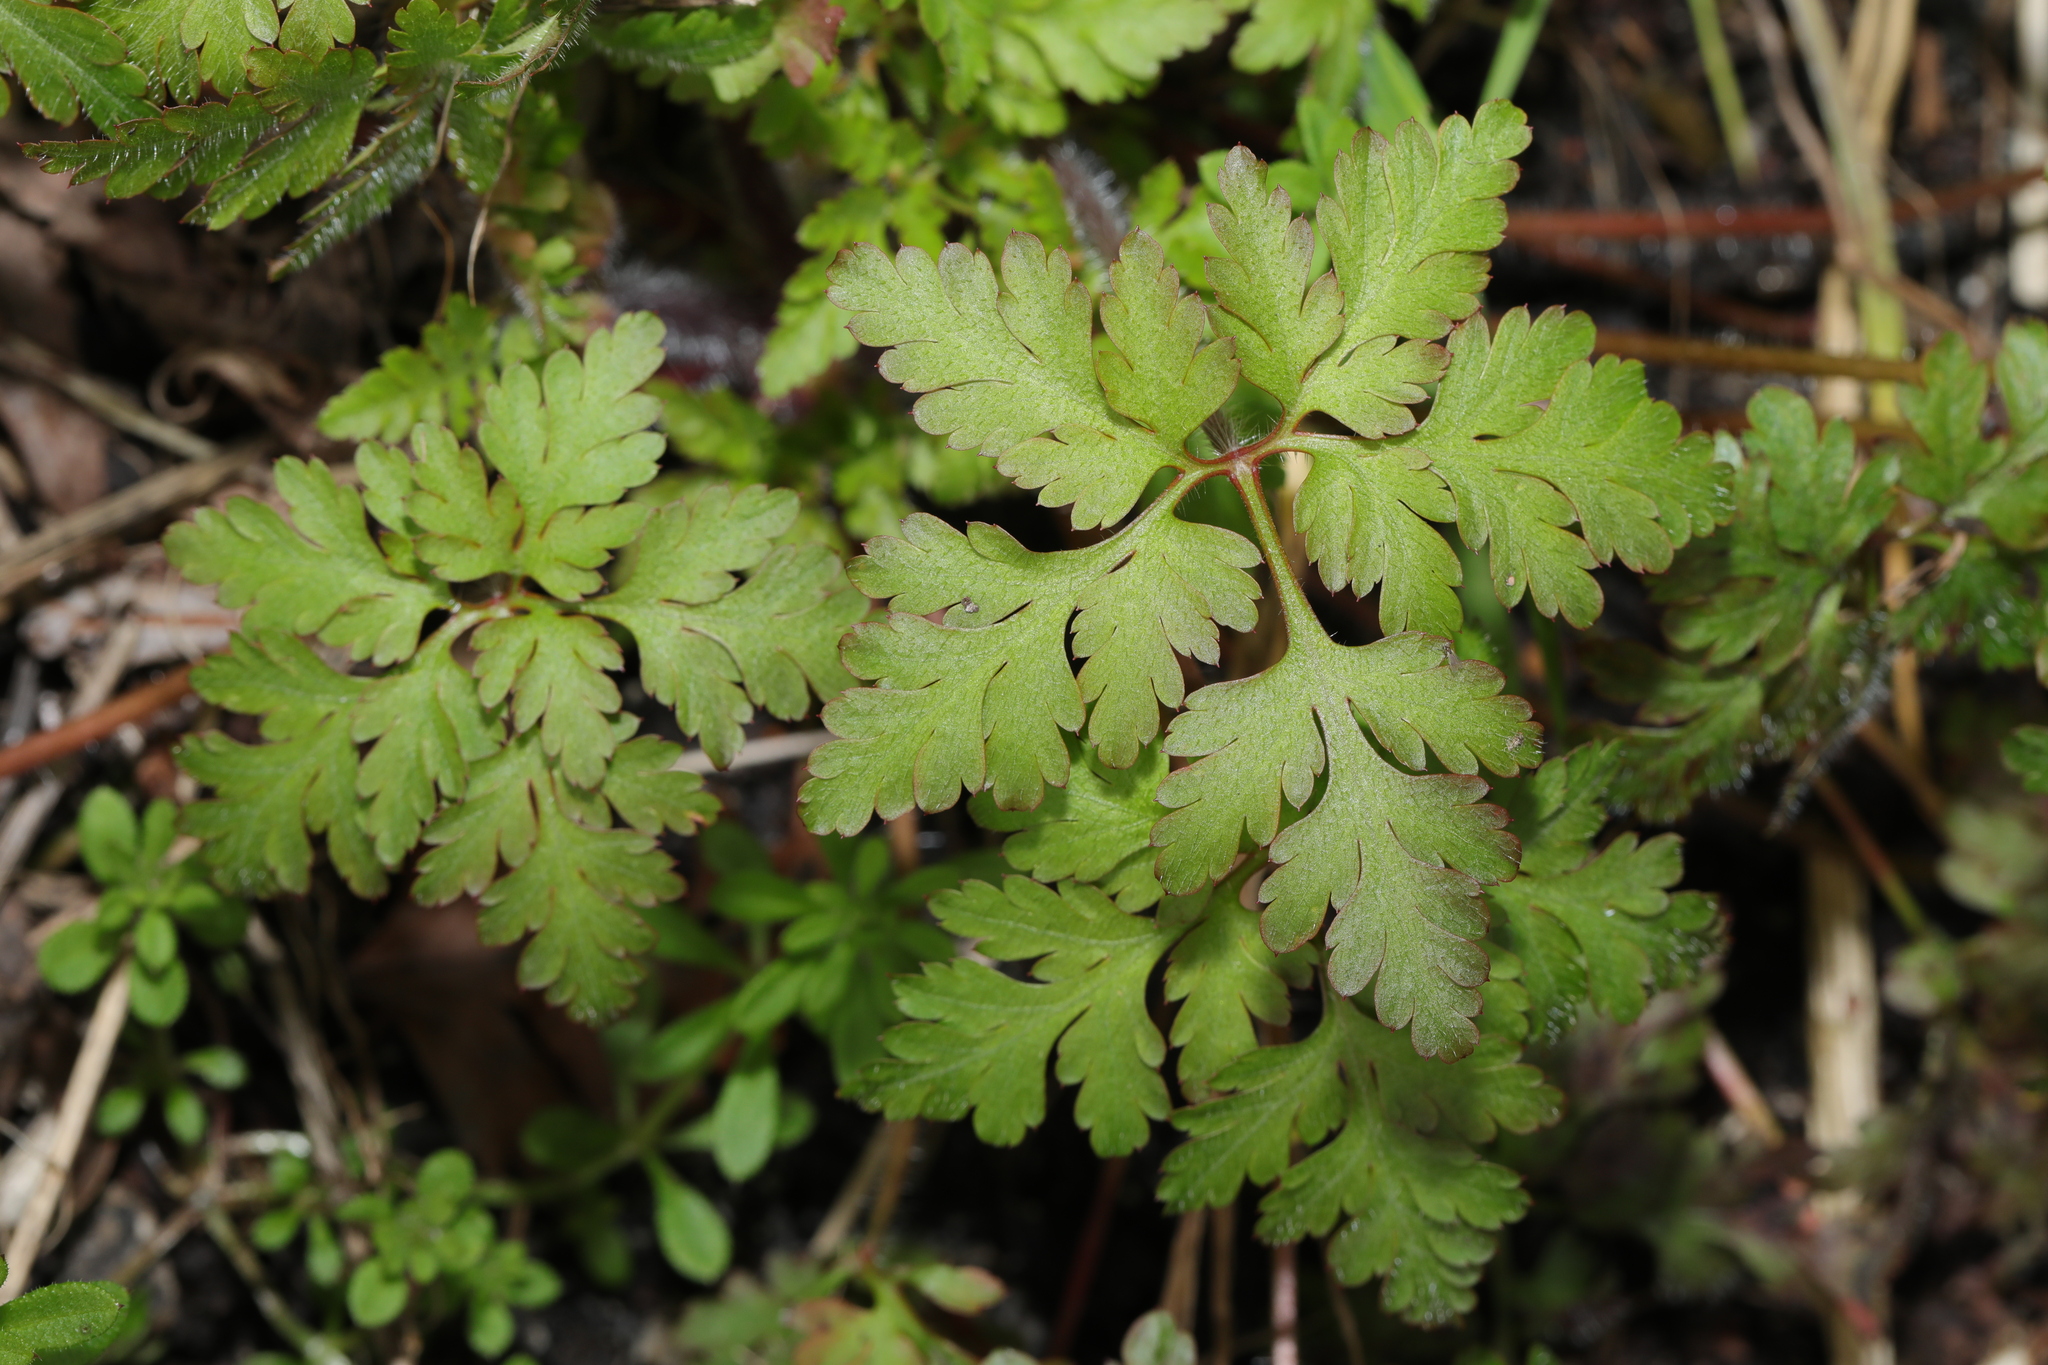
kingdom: Plantae
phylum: Tracheophyta
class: Magnoliopsida
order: Geraniales
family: Geraniaceae
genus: Geranium
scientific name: Geranium robertianum
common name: Herb-robert
